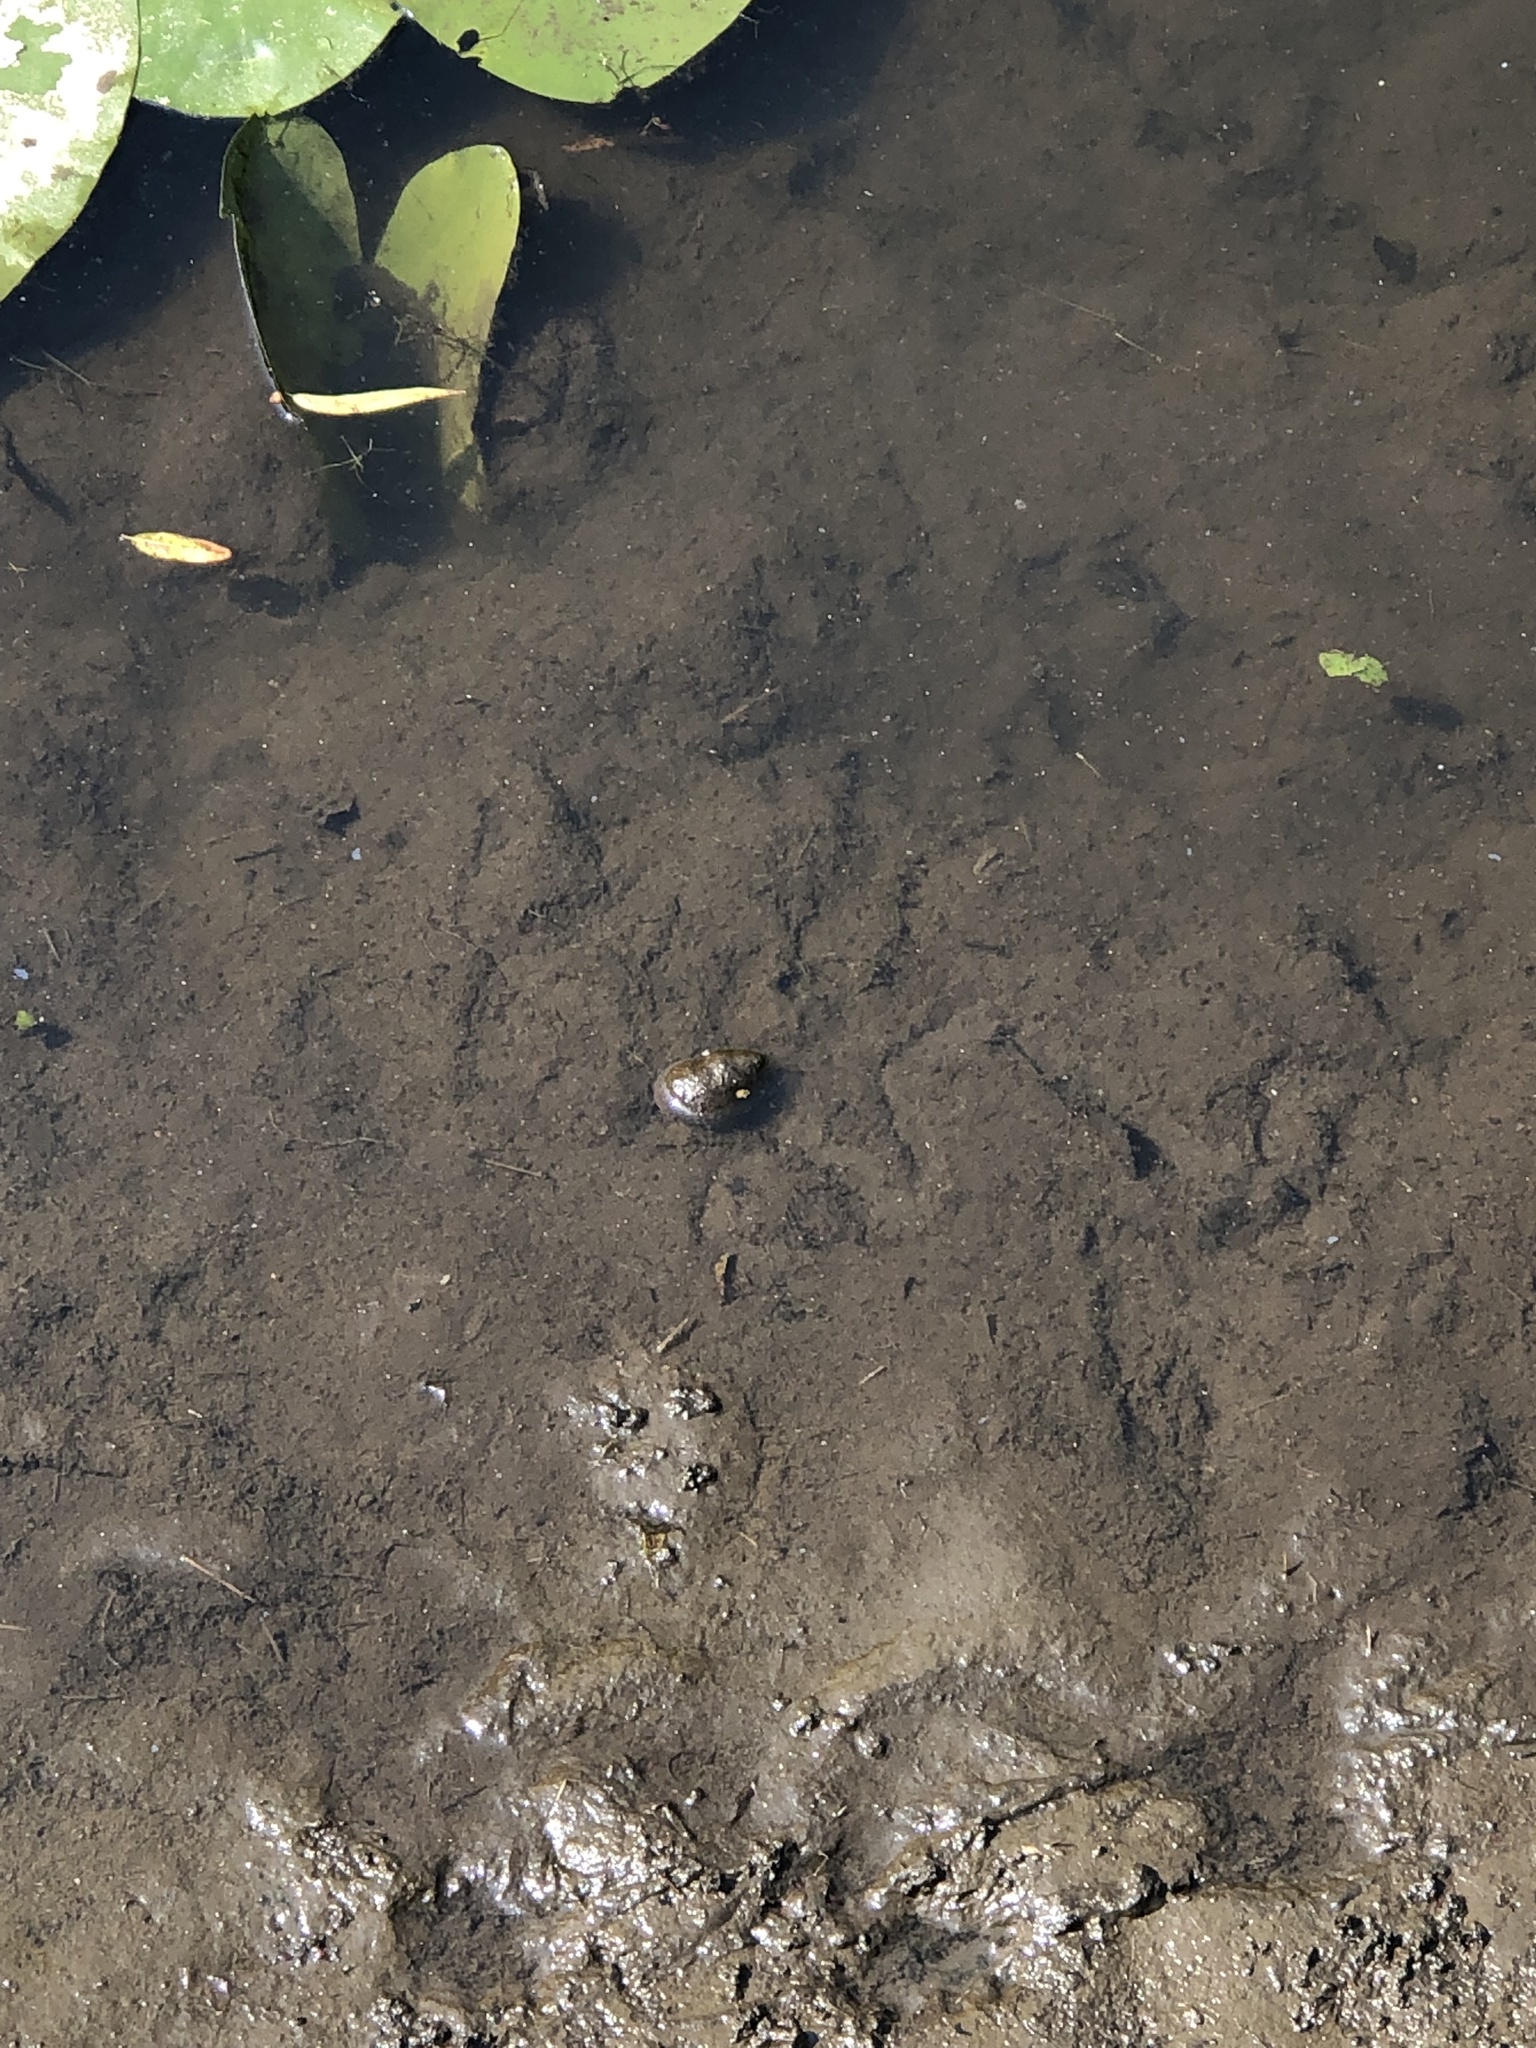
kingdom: Animalia
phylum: Mollusca
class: Gastropoda
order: Architaenioglossa
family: Viviparidae
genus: Cipangopaludina
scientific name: Cipangopaludina chinensis
